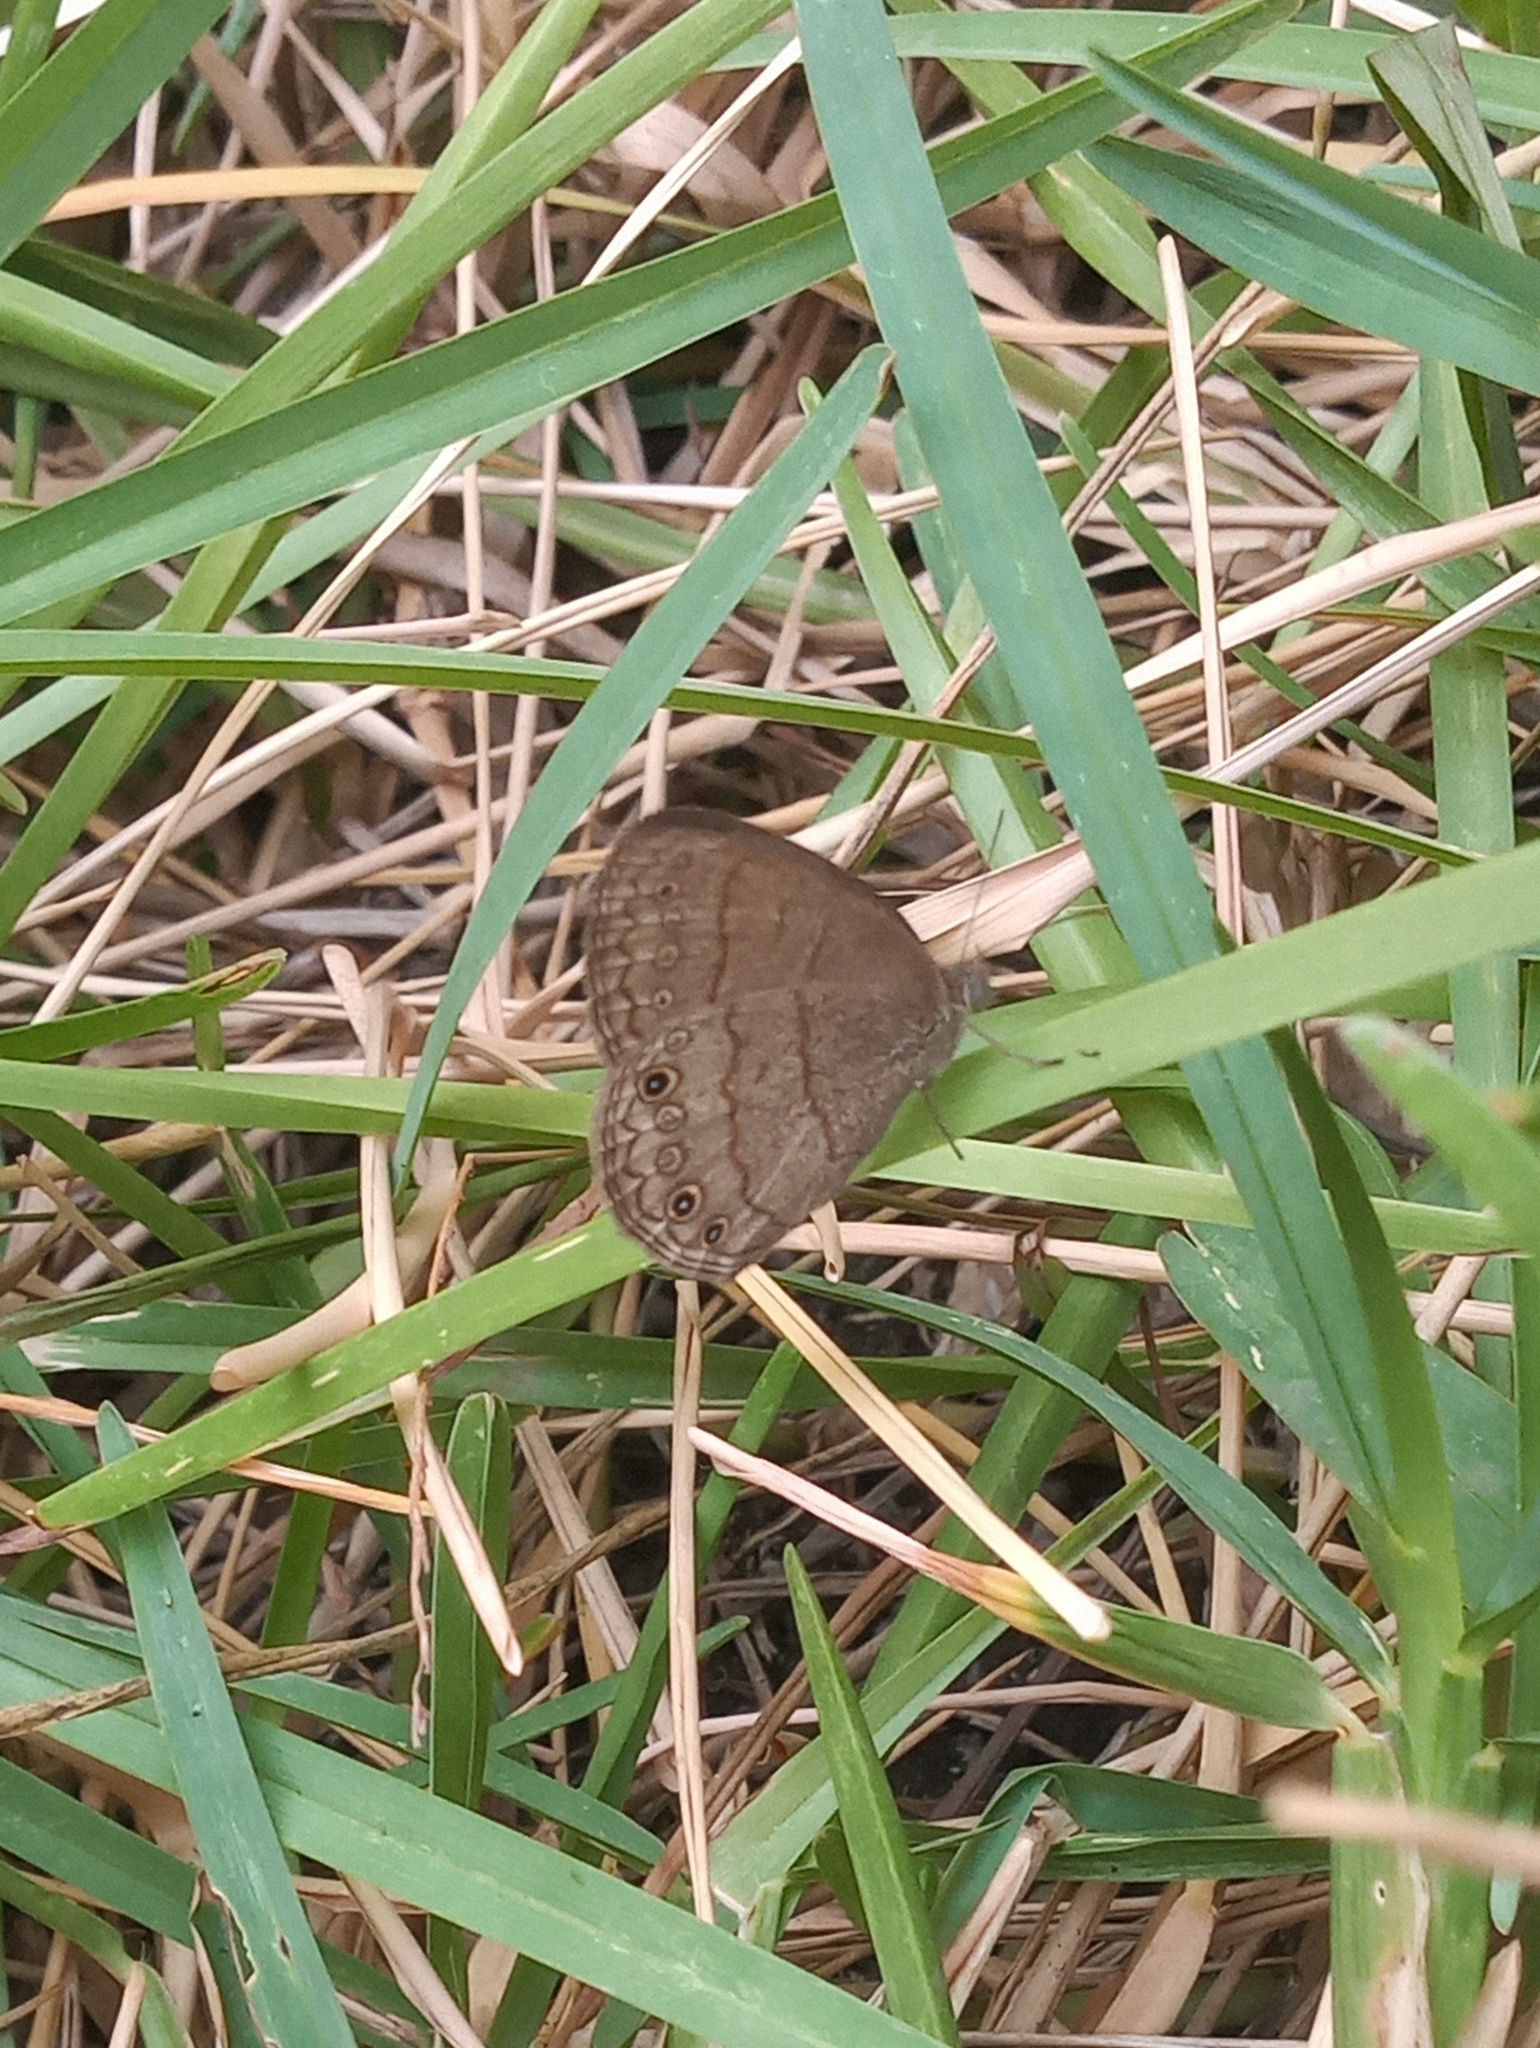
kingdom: Animalia
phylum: Arthropoda
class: Insecta
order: Lepidoptera
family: Nymphalidae
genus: Hermeuptychia
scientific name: Hermeuptychia hermes
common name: Hermes satyr
